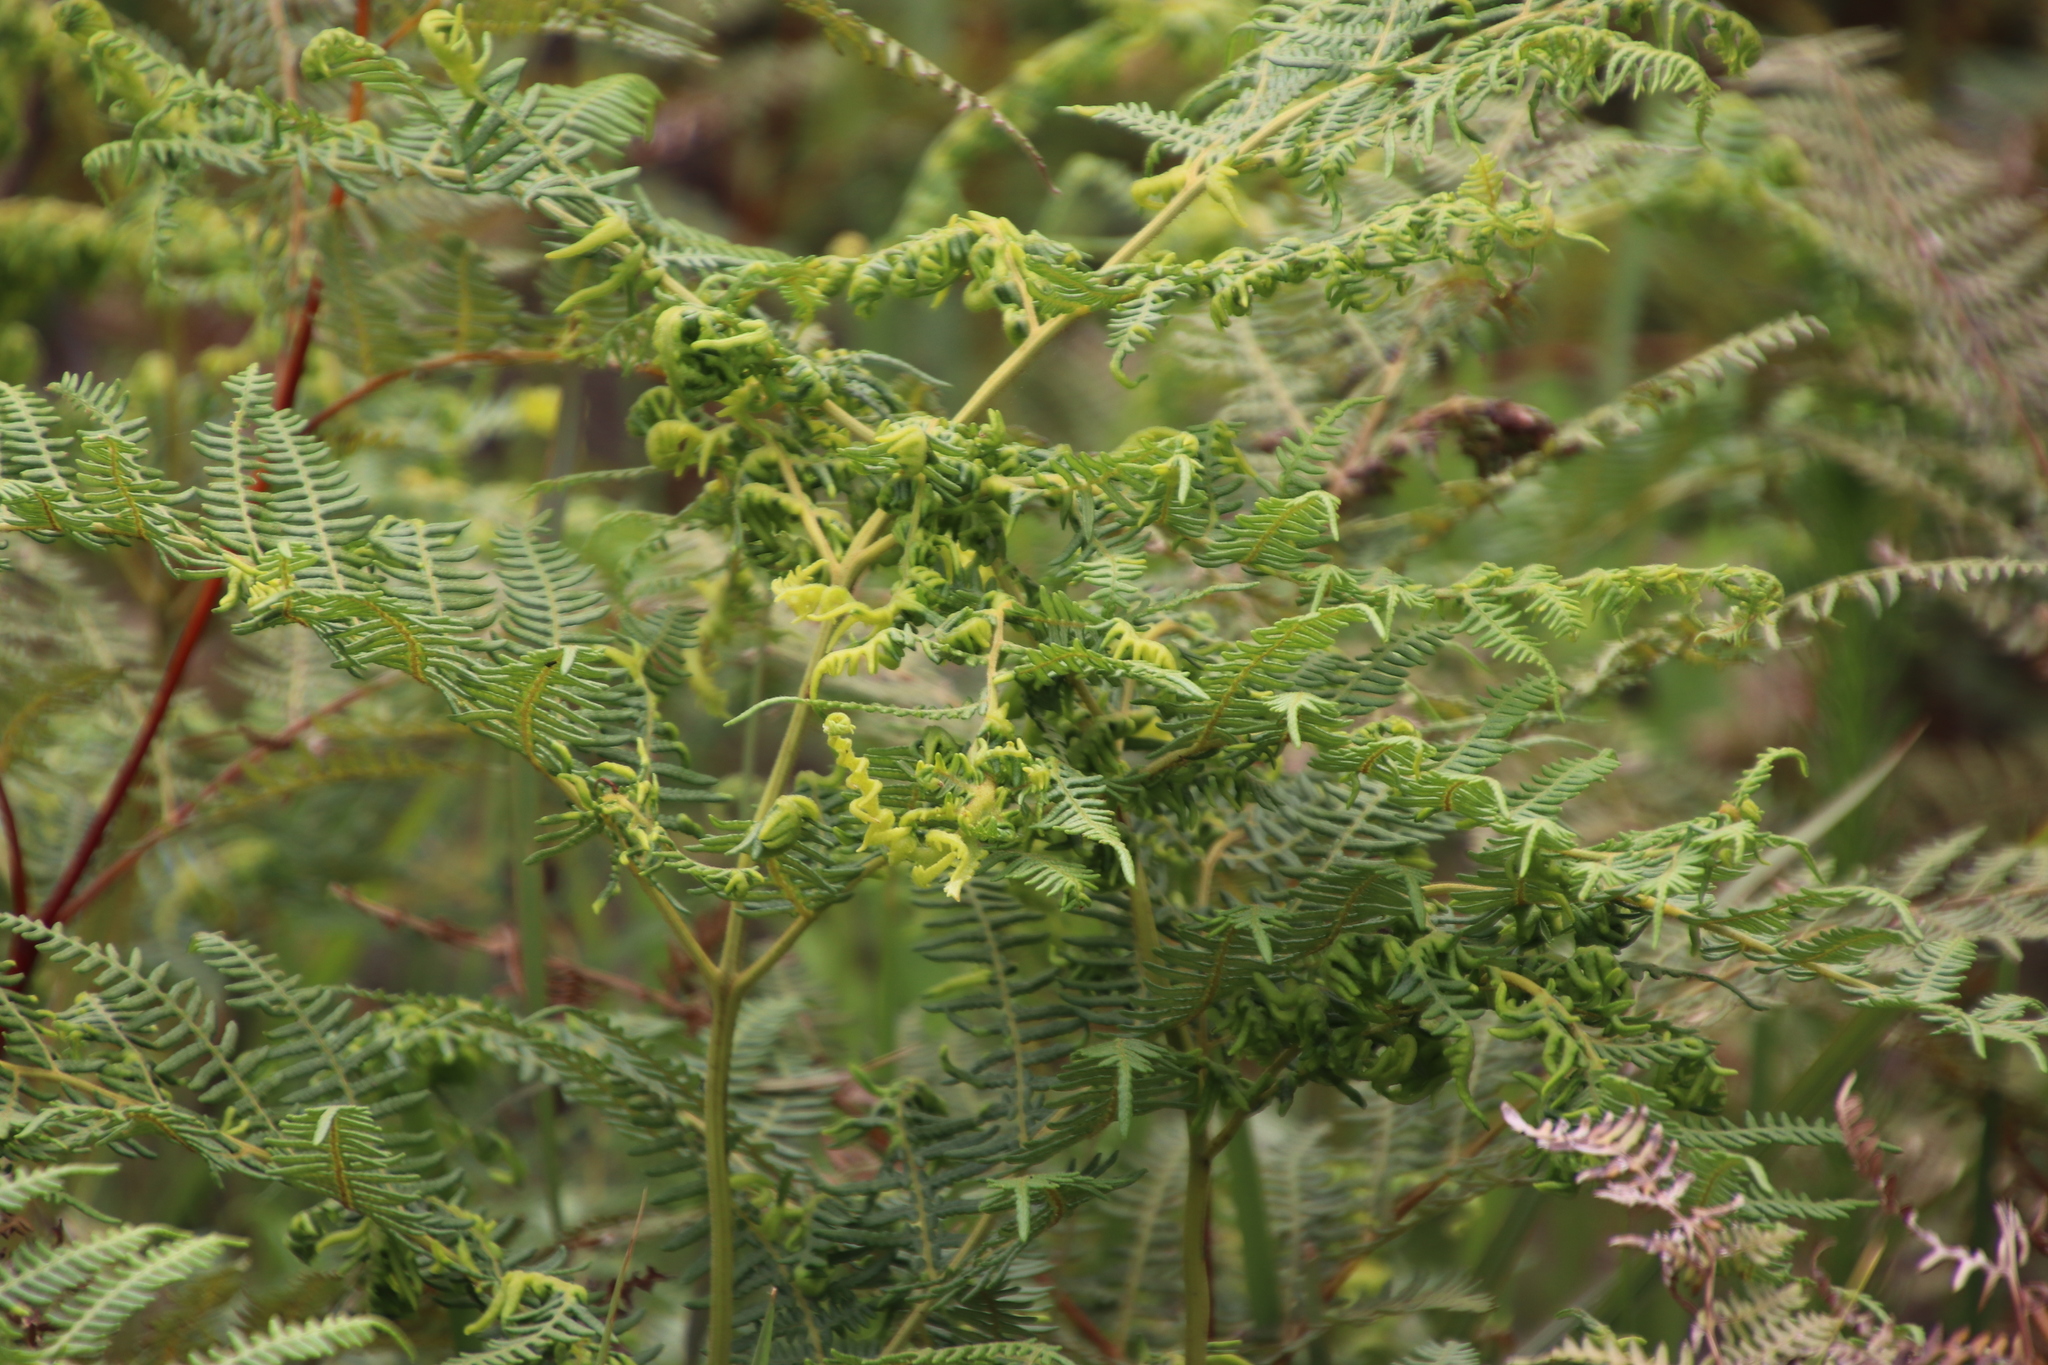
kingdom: Animalia
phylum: Arthropoda
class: Arachnida
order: Trombidiformes
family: Eriophyidae
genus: Eriophyes
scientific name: Eriophyes
